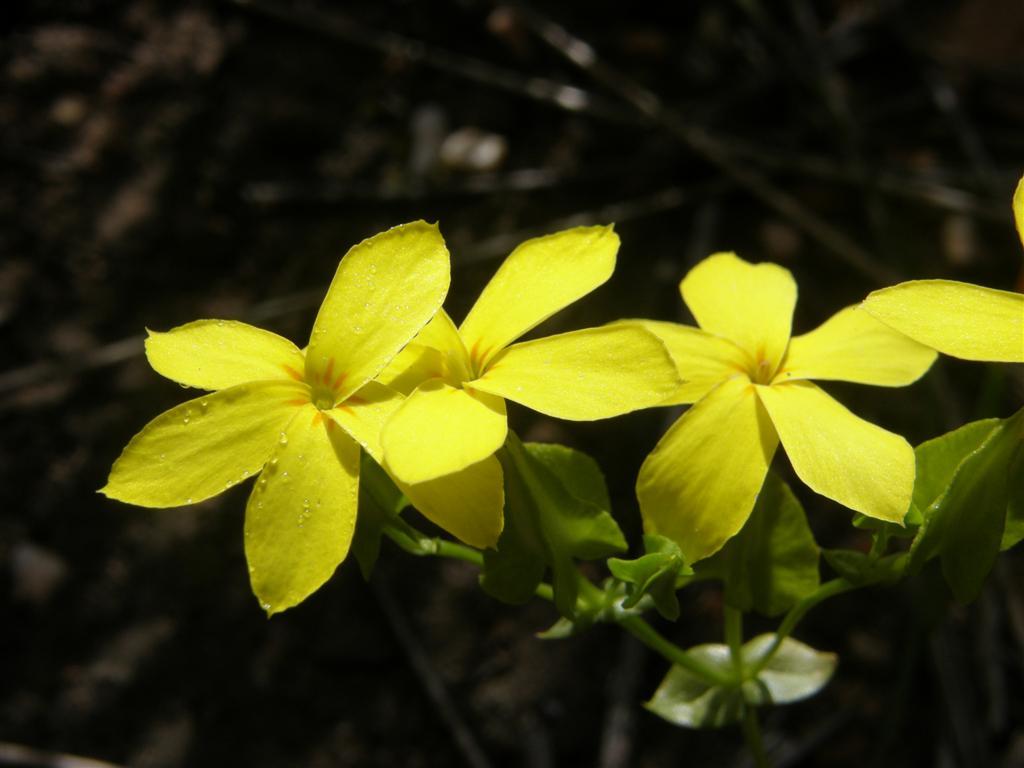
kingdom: Plantae
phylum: Tracheophyta
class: Magnoliopsida
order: Gentianales
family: Gentianaceae
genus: Sebaea
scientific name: Sebaea exacoides
